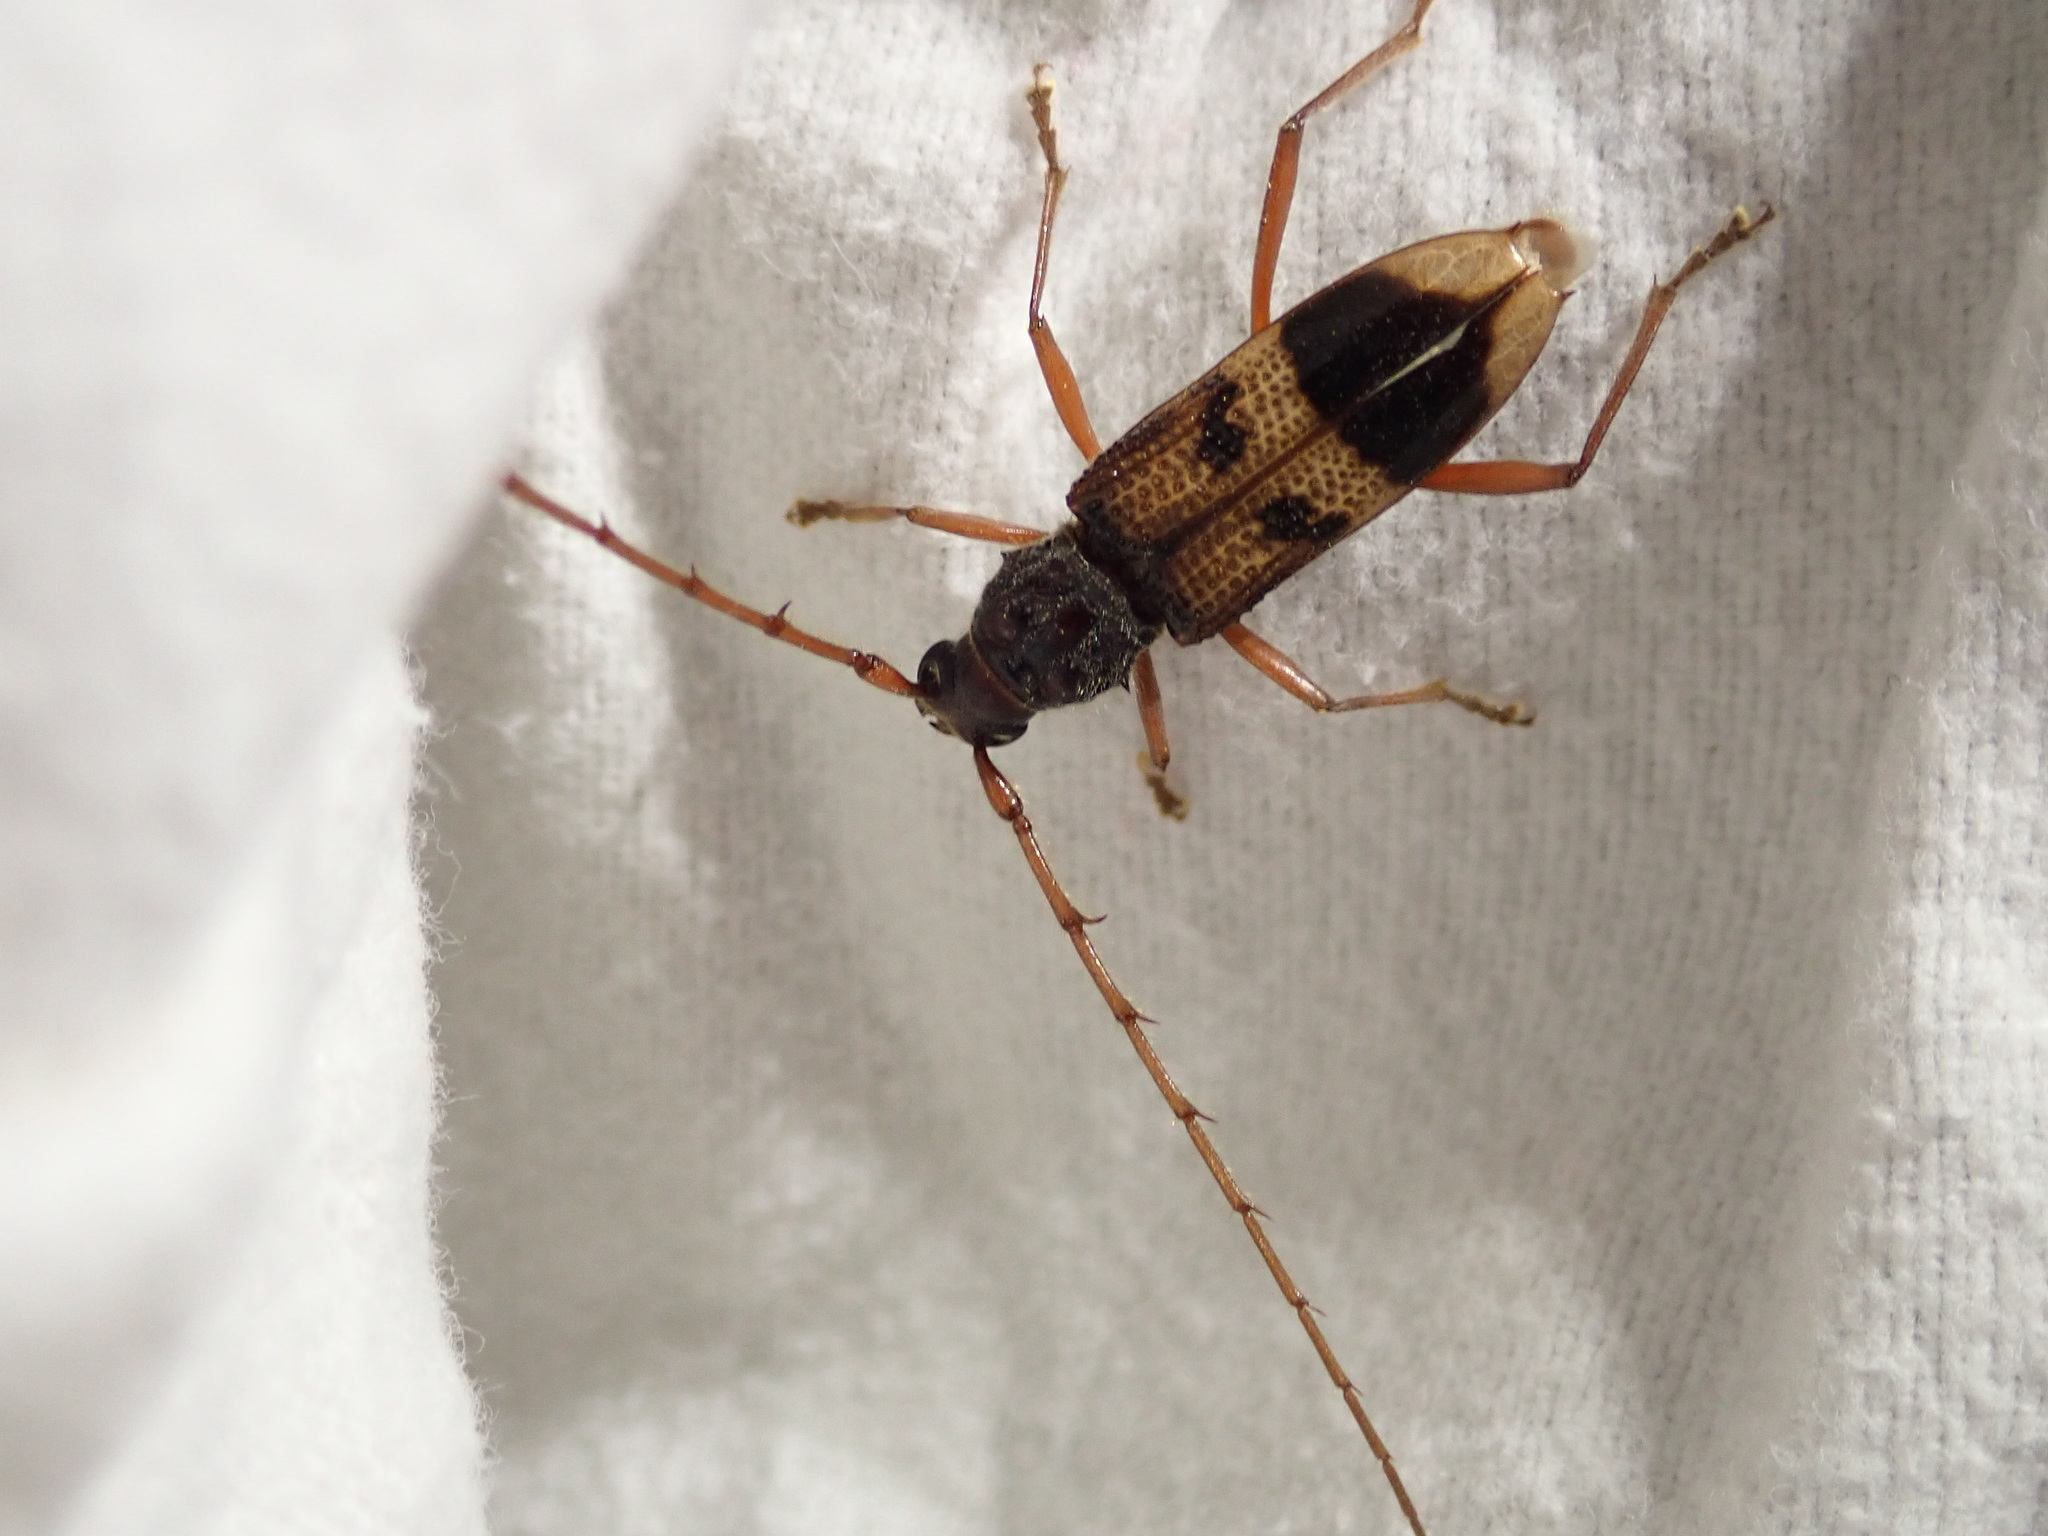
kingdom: Animalia
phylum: Arthropoda
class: Insecta
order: Coleoptera
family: Cerambycidae
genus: Phoracantha
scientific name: Phoracantha recurva
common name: Eucalyptus longhorned borer
